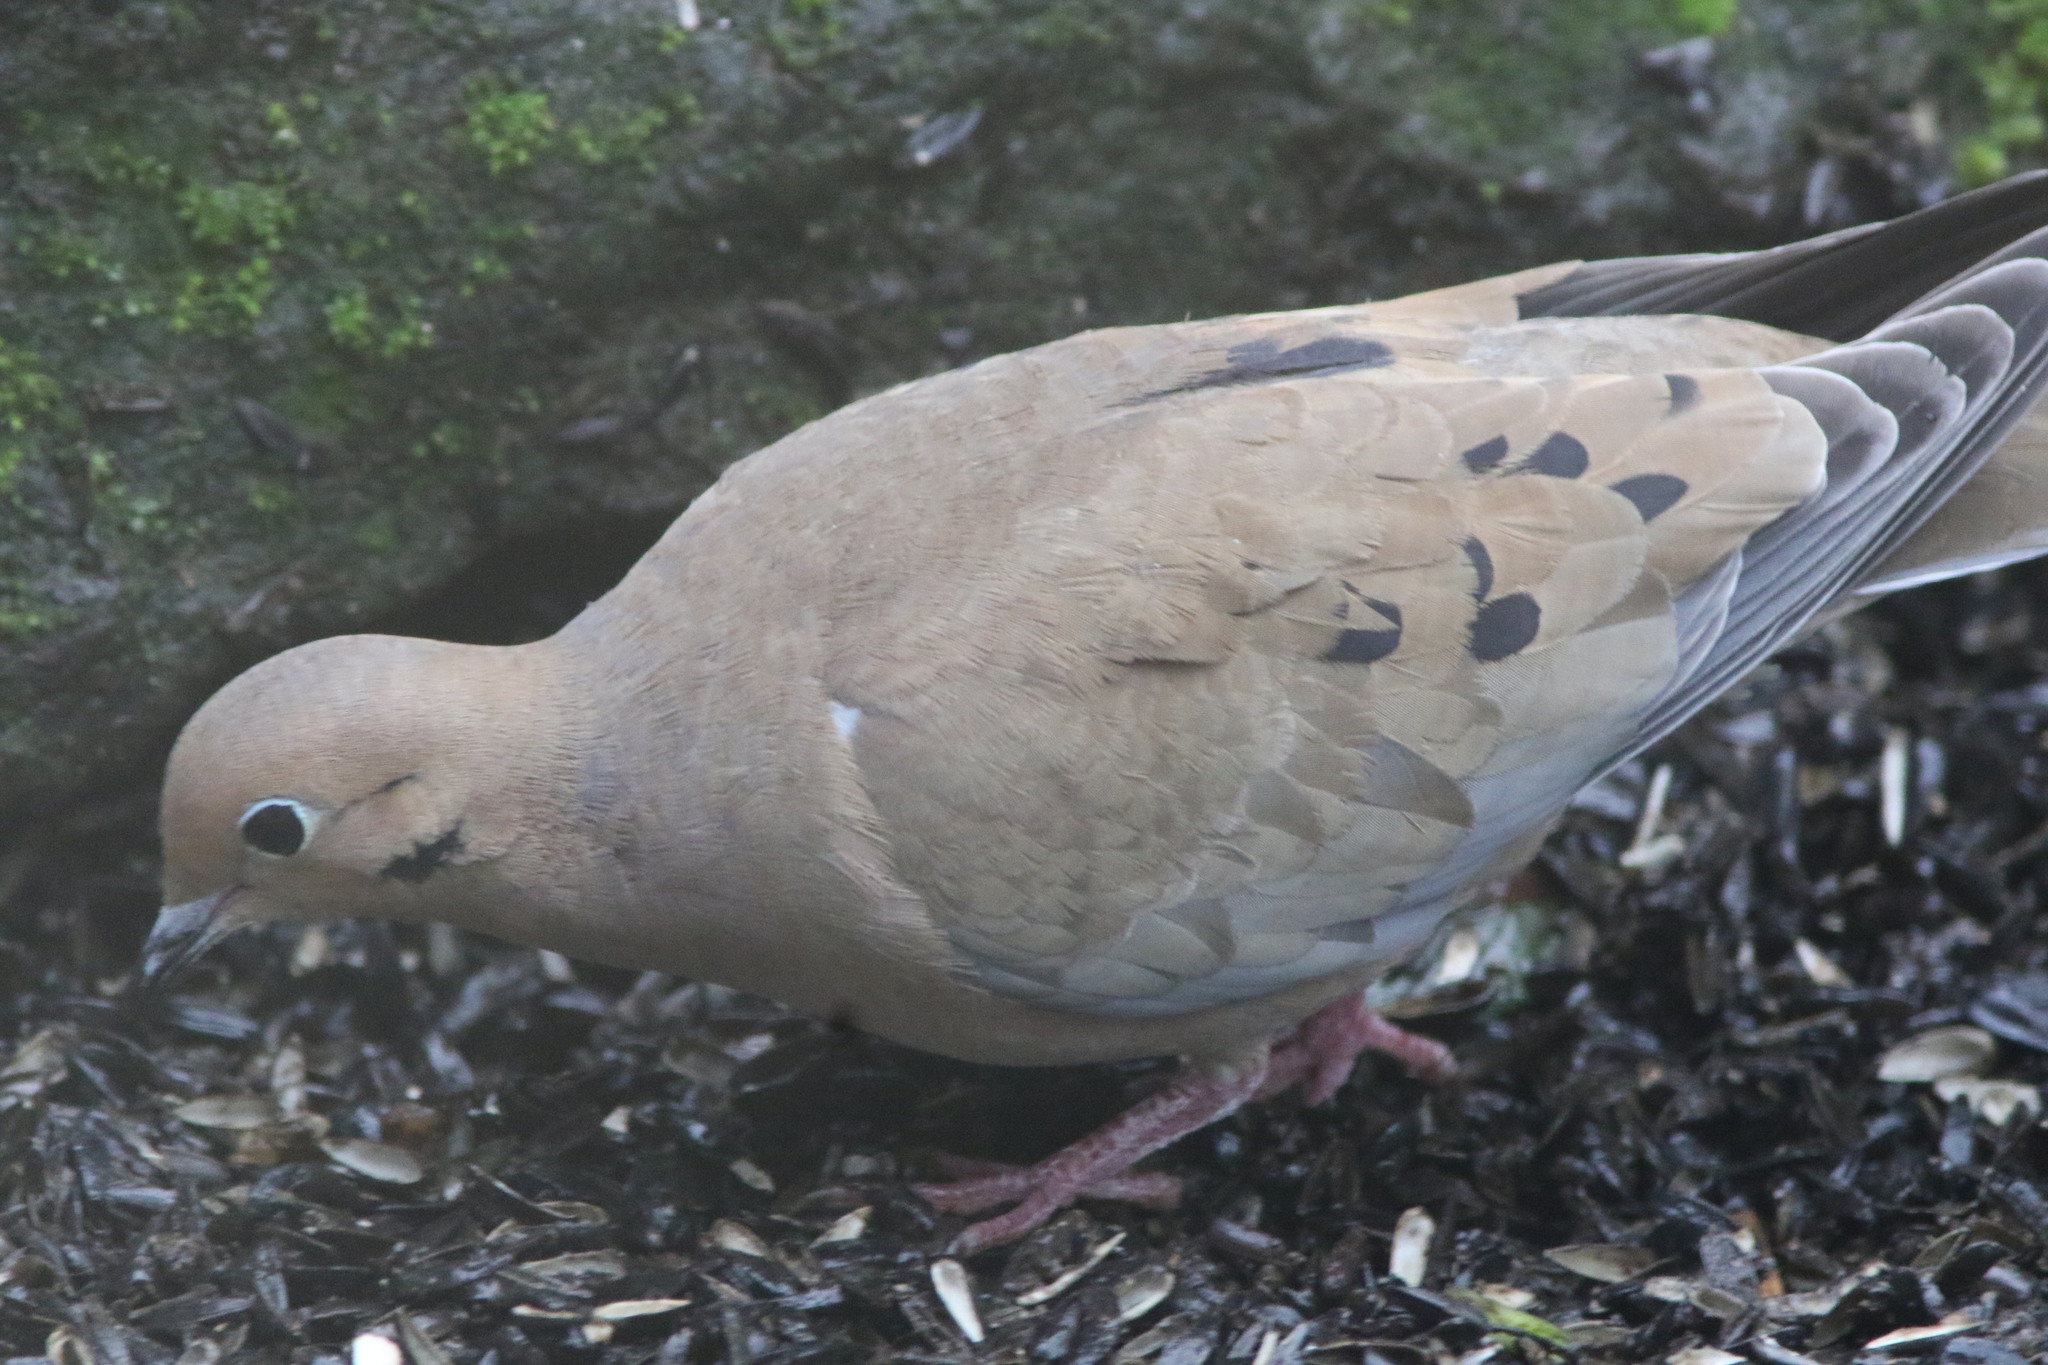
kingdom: Animalia
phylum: Chordata
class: Aves
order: Columbiformes
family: Columbidae
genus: Zenaida
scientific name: Zenaida macroura
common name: Mourning dove
